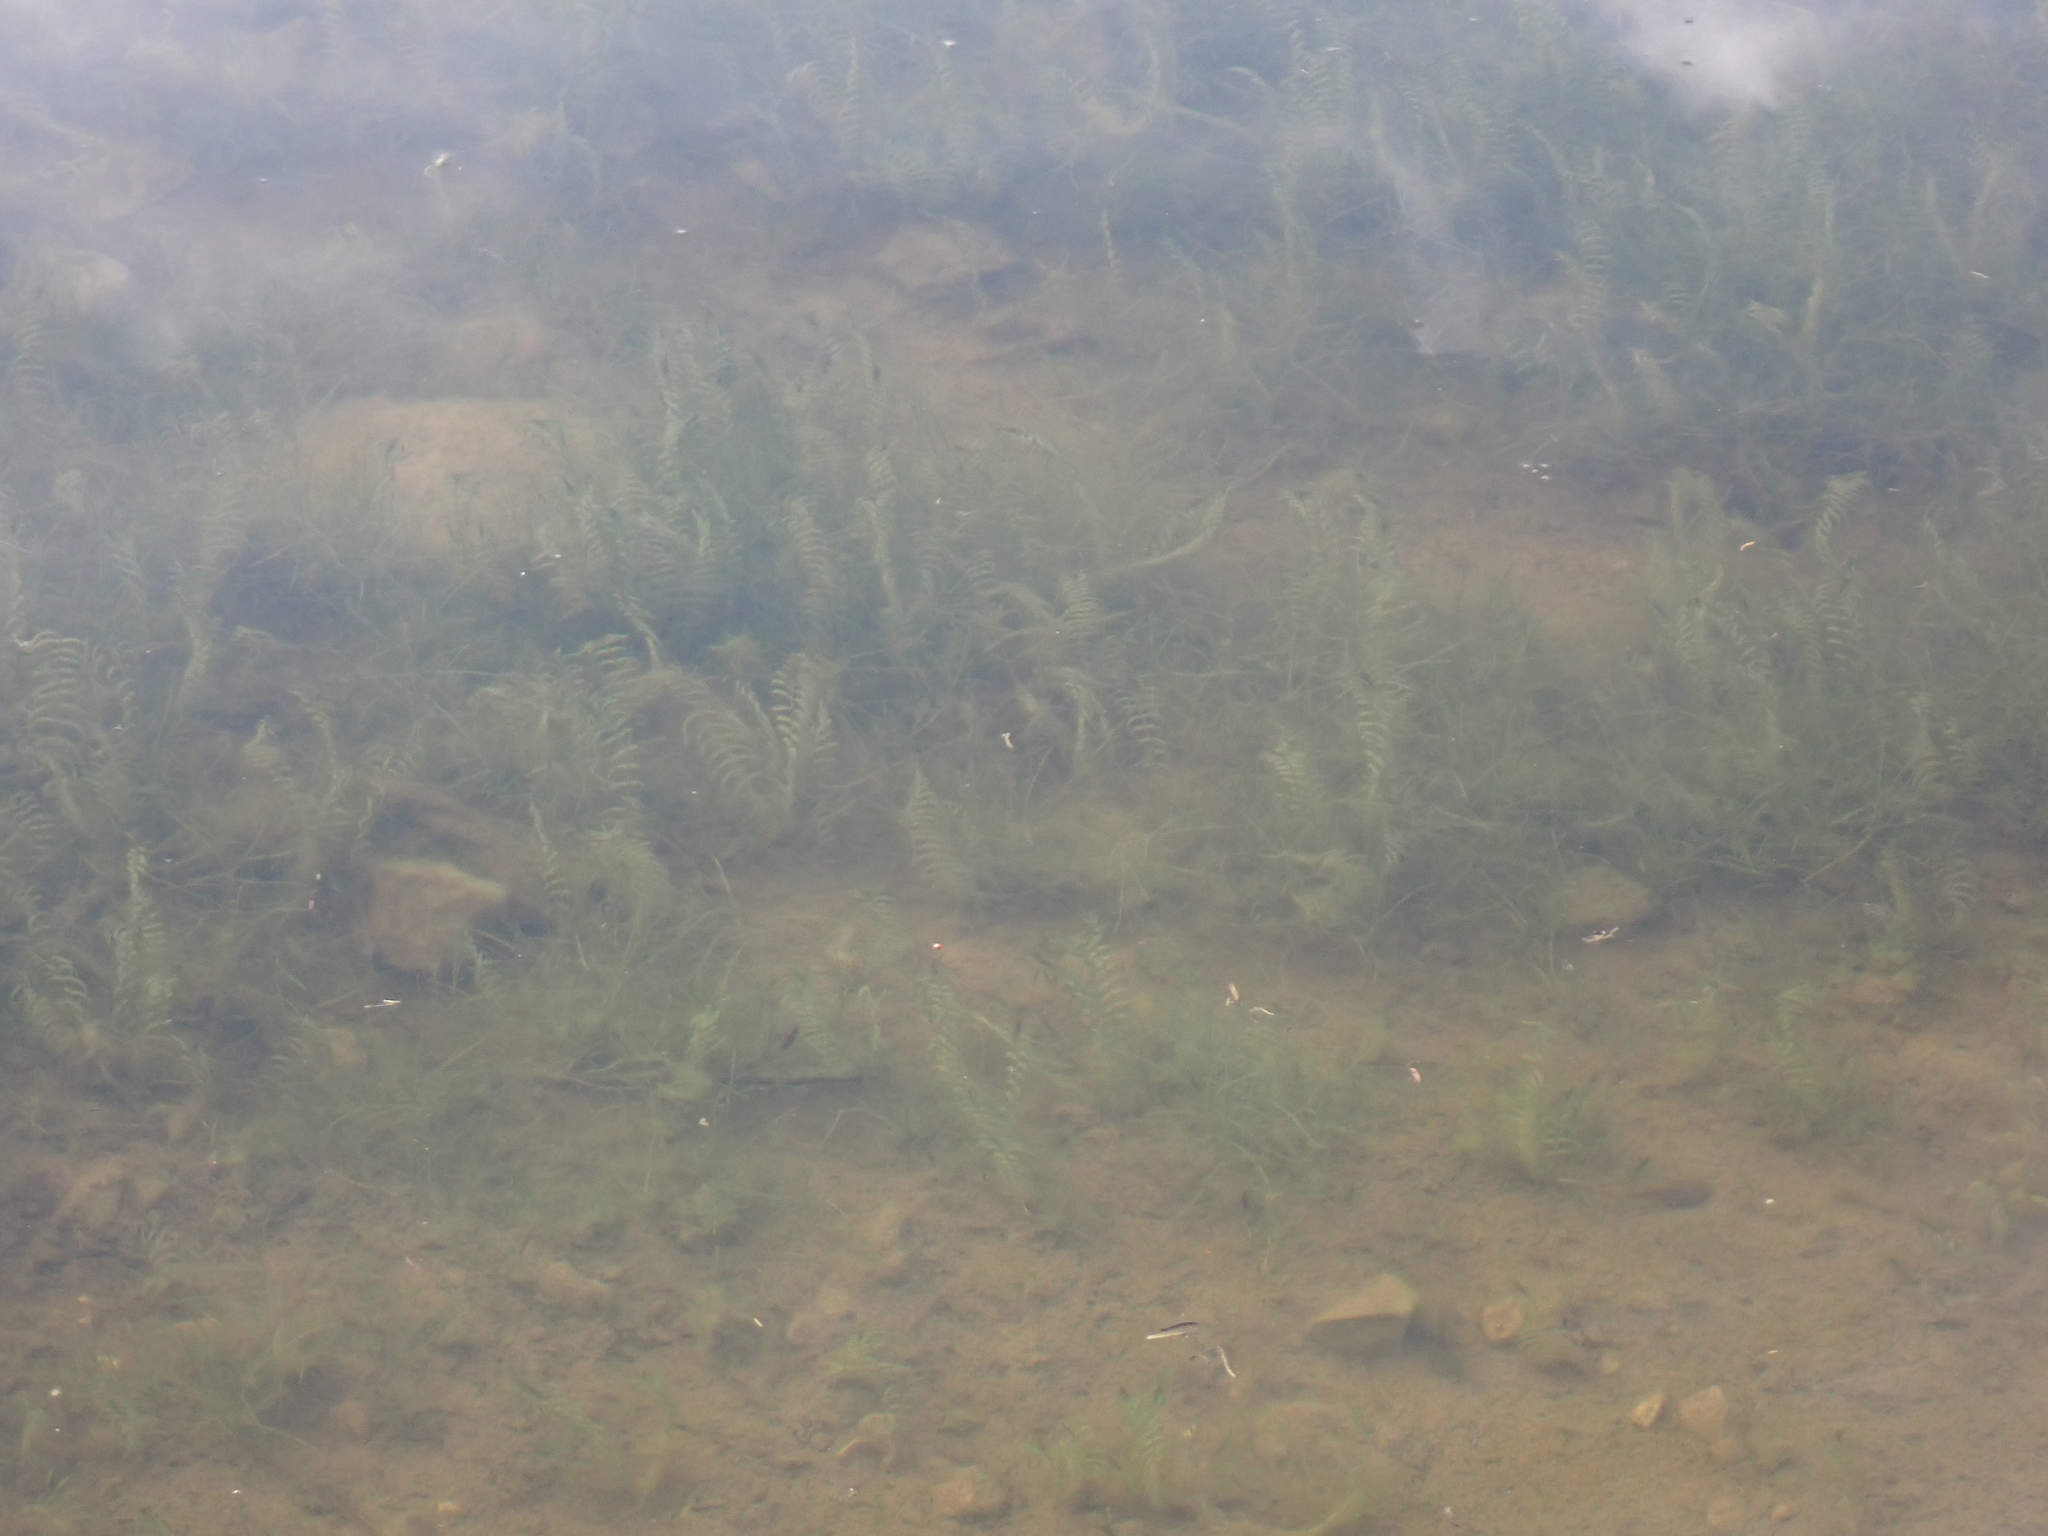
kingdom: Plantae
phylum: Tracheophyta
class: Liliopsida
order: Alismatales
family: Potamogetonaceae
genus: Groenlandia
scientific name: Groenlandia densa
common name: Opposite-leaved pondweed
